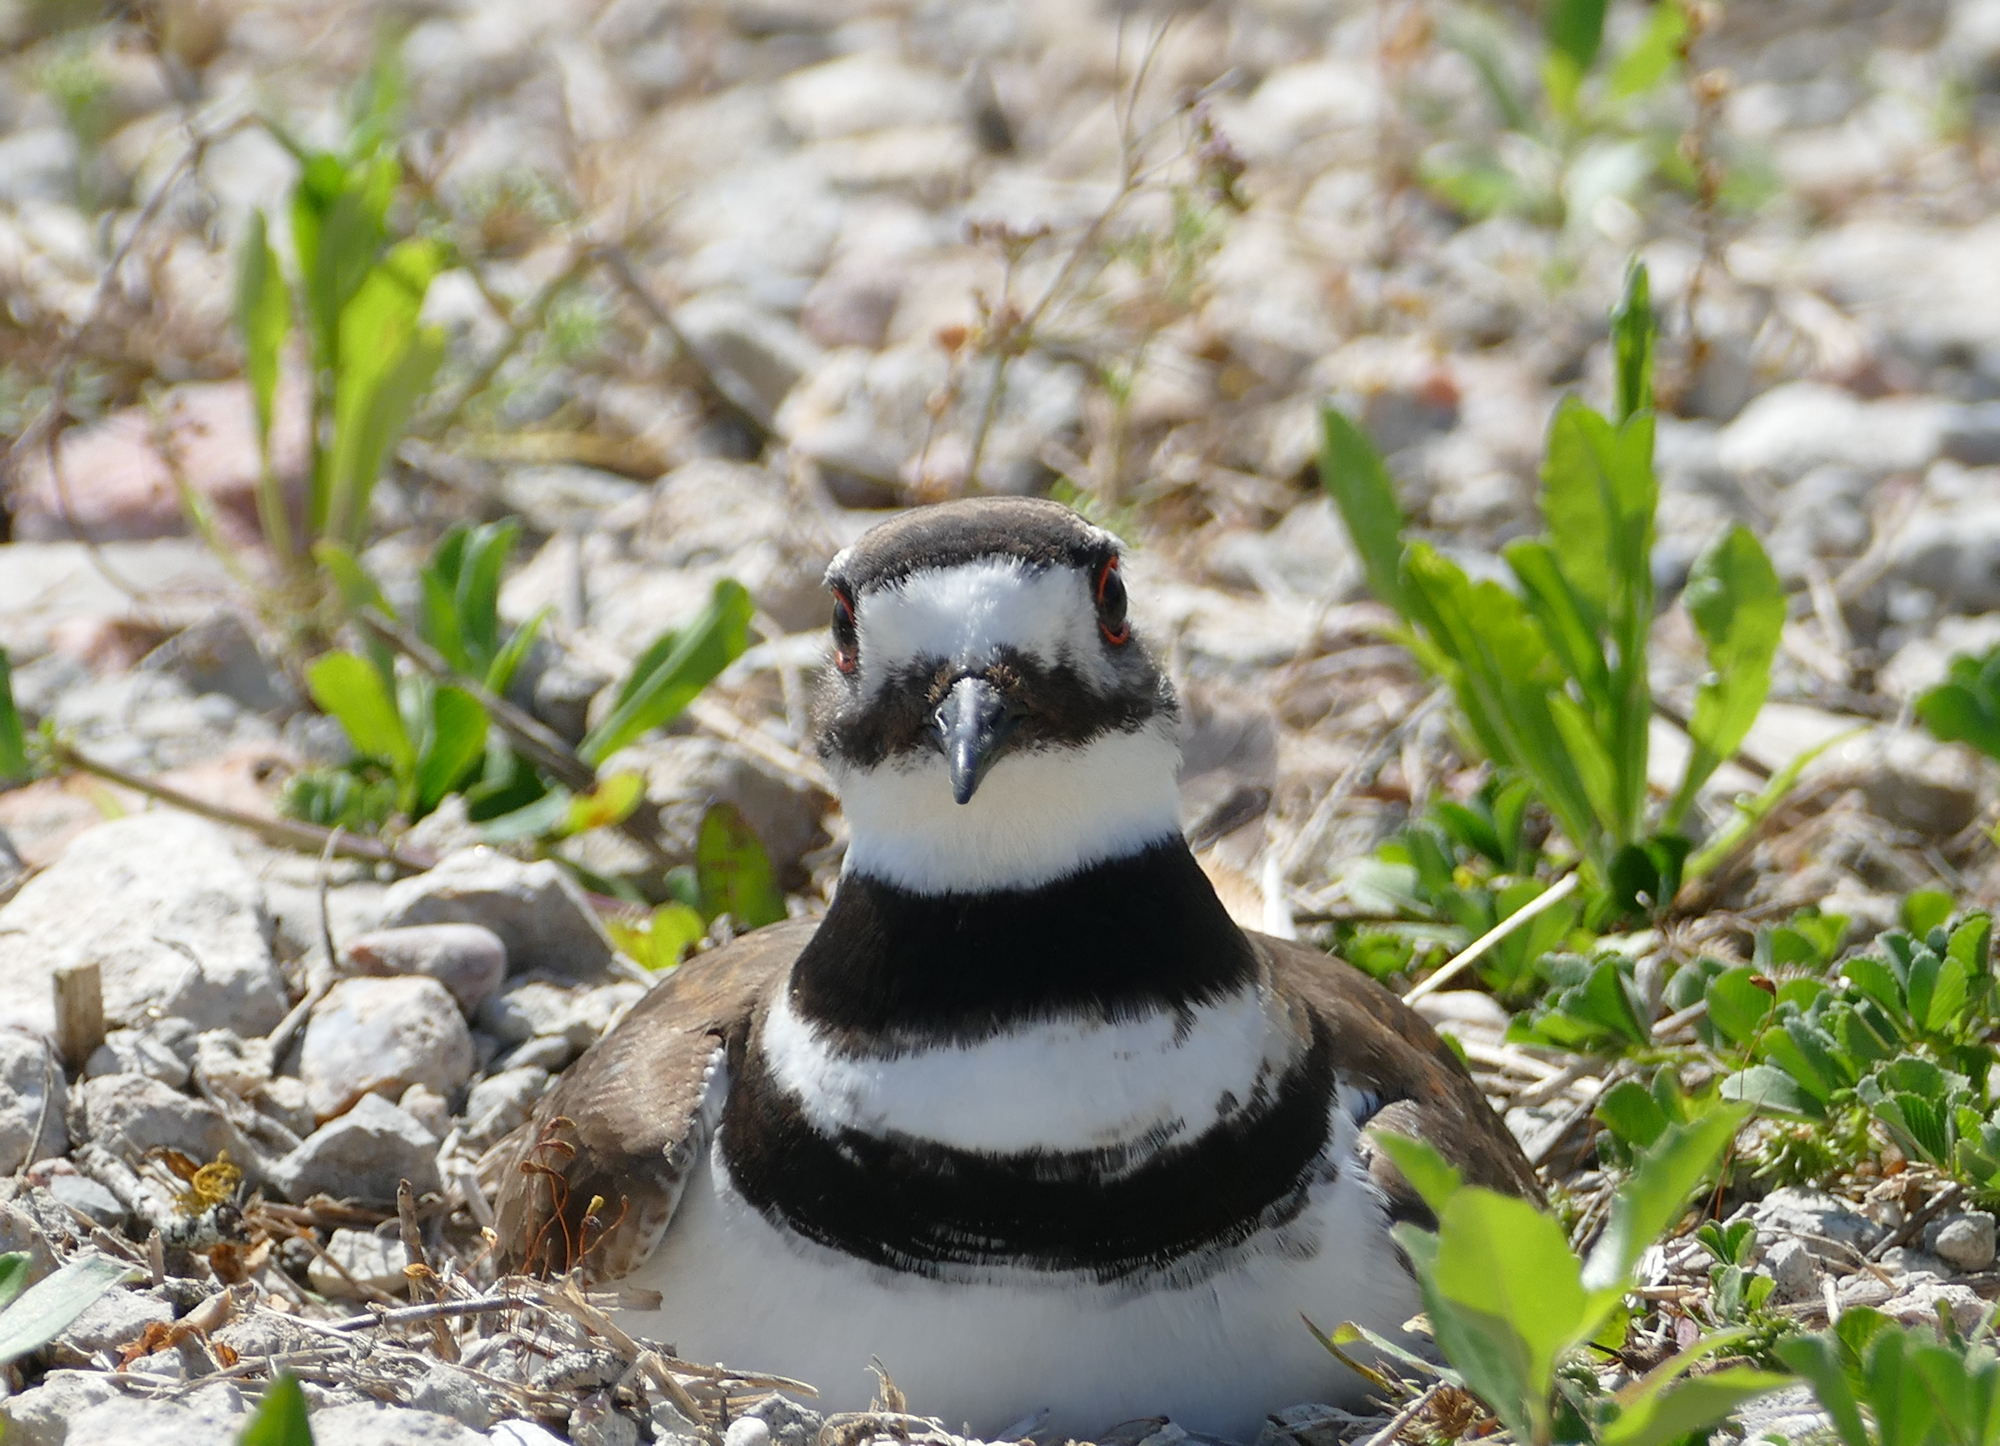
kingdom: Animalia
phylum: Chordata
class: Aves
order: Charadriiformes
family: Charadriidae
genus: Charadrius
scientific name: Charadrius vociferus
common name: Killdeer
